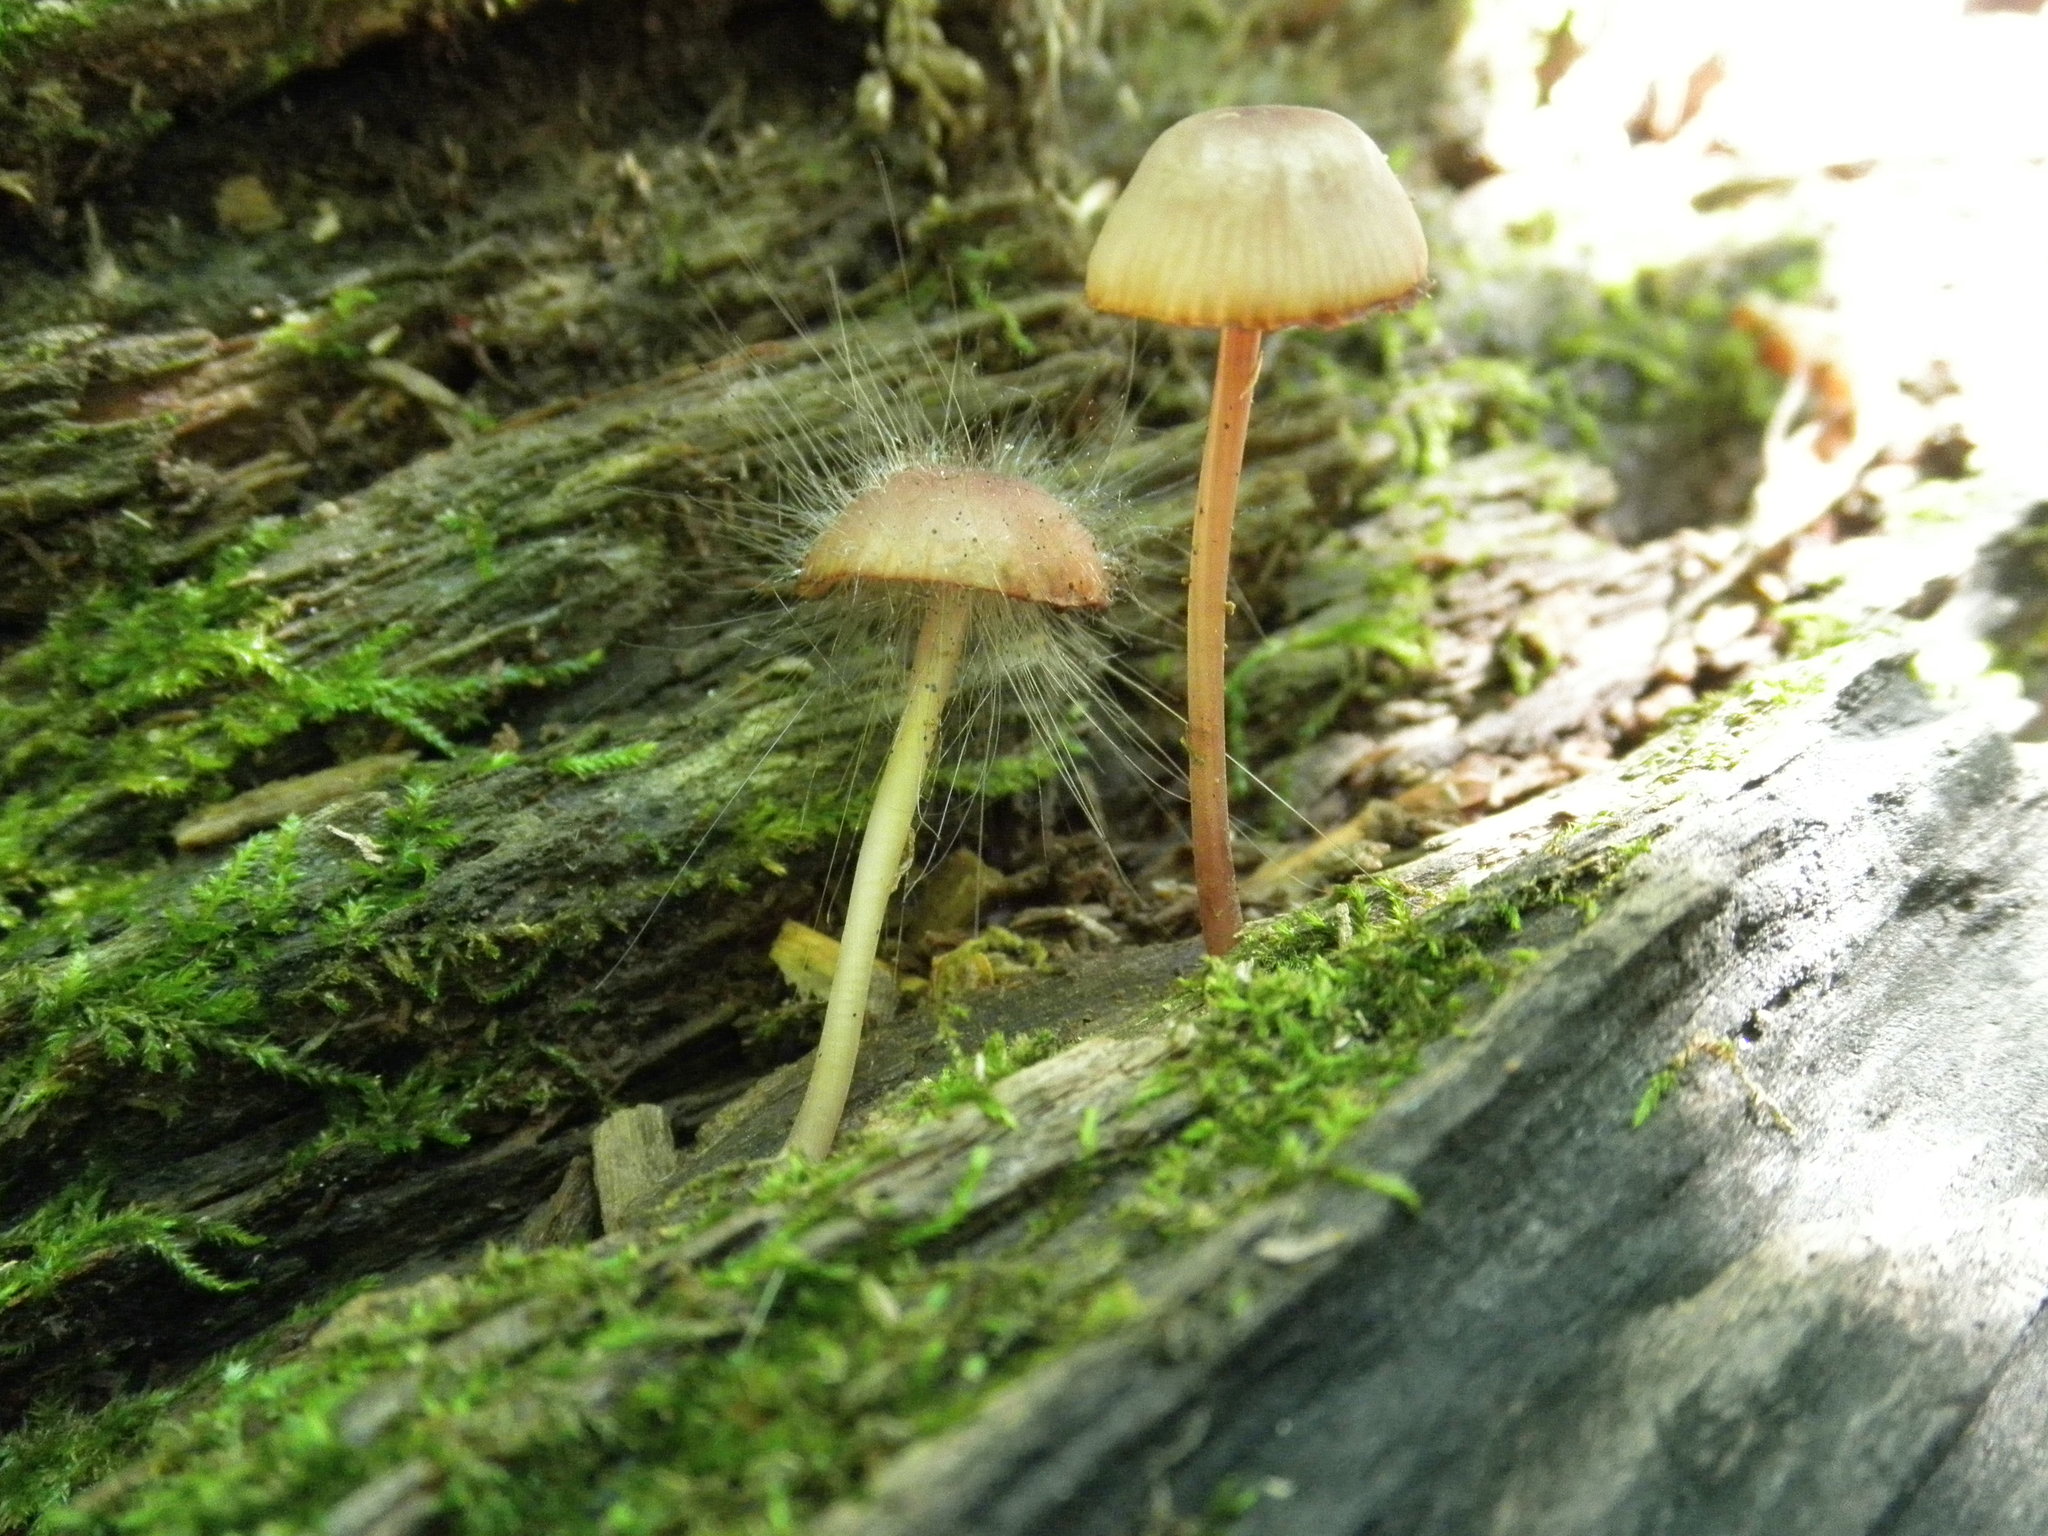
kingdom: Fungi
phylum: Mucoromycota
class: Mucoromycetes
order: Mucorales
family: Phycomycetaceae
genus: Spinellus
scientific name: Spinellus fusiger
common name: Bonnet mould
